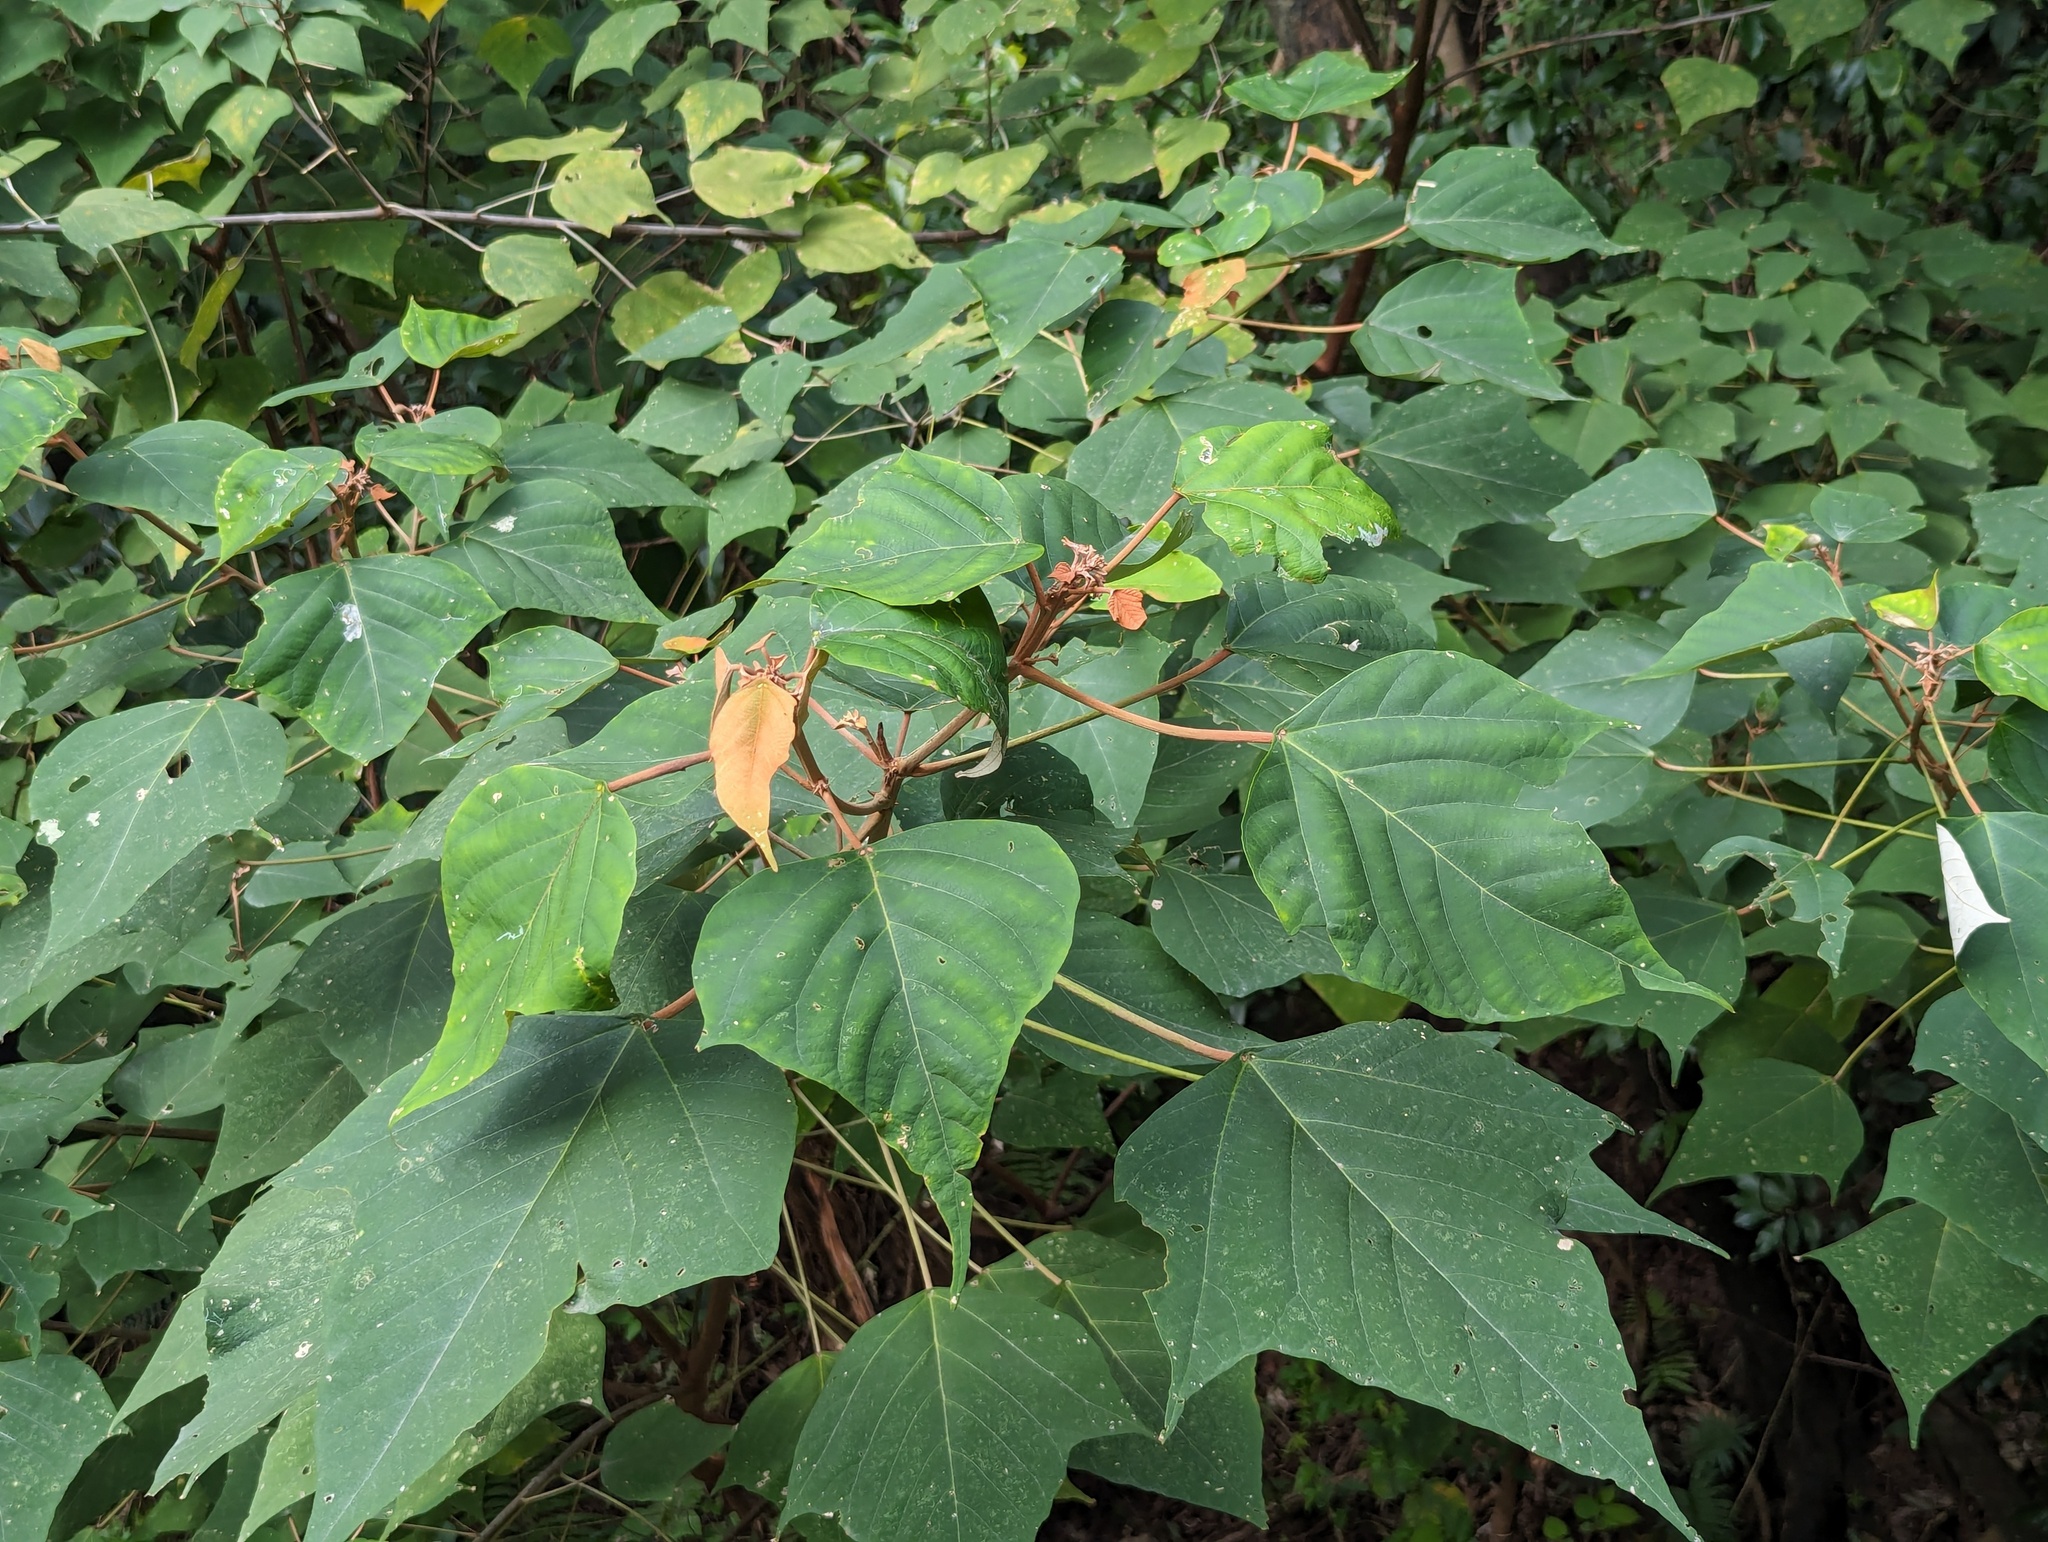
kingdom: Plantae
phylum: Tracheophyta
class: Magnoliopsida
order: Malpighiales
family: Euphorbiaceae
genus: Mallotus
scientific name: Mallotus paniculatus
